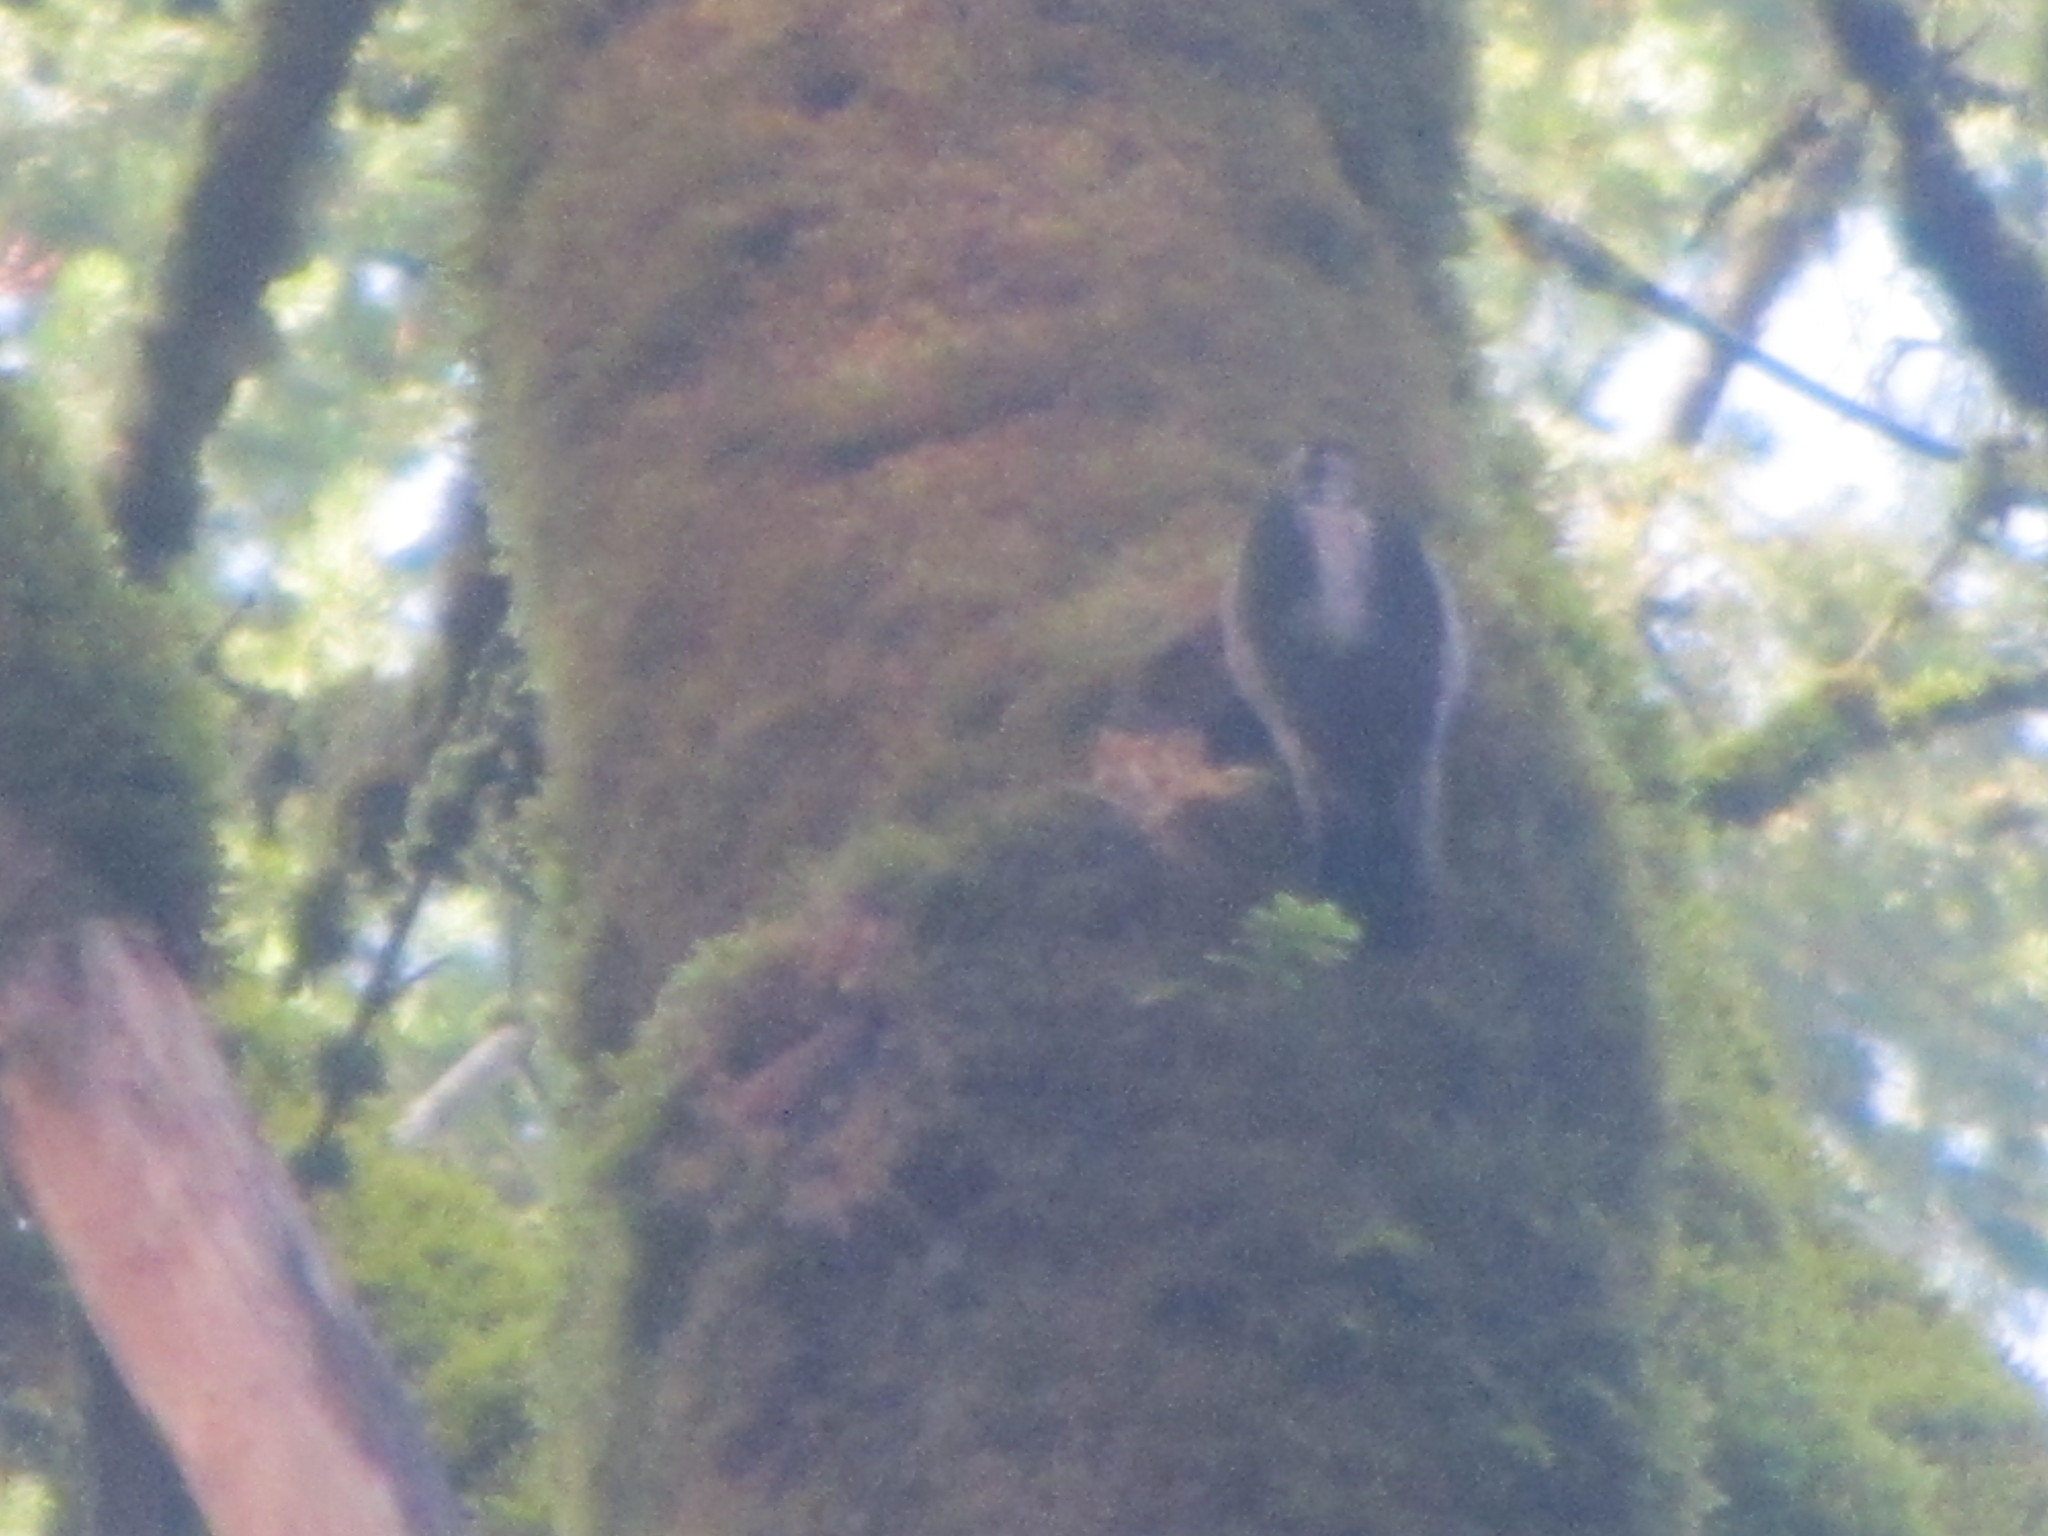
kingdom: Animalia
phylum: Chordata
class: Aves
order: Piciformes
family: Picidae
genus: Leuconotopicus
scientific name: Leuconotopicus villosus
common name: Hairy woodpecker
